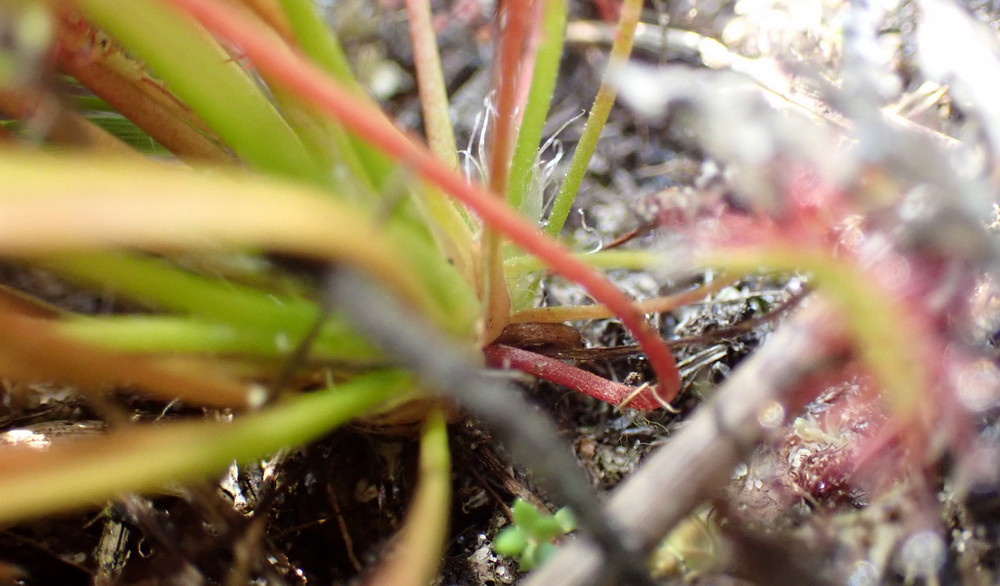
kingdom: Plantae
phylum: Tracheophyta
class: Magnoliopsida
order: Caryophyllales
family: Droseraceae
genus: Drosera
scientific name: Drosera intermedia
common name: Oblong-leaved sundew
